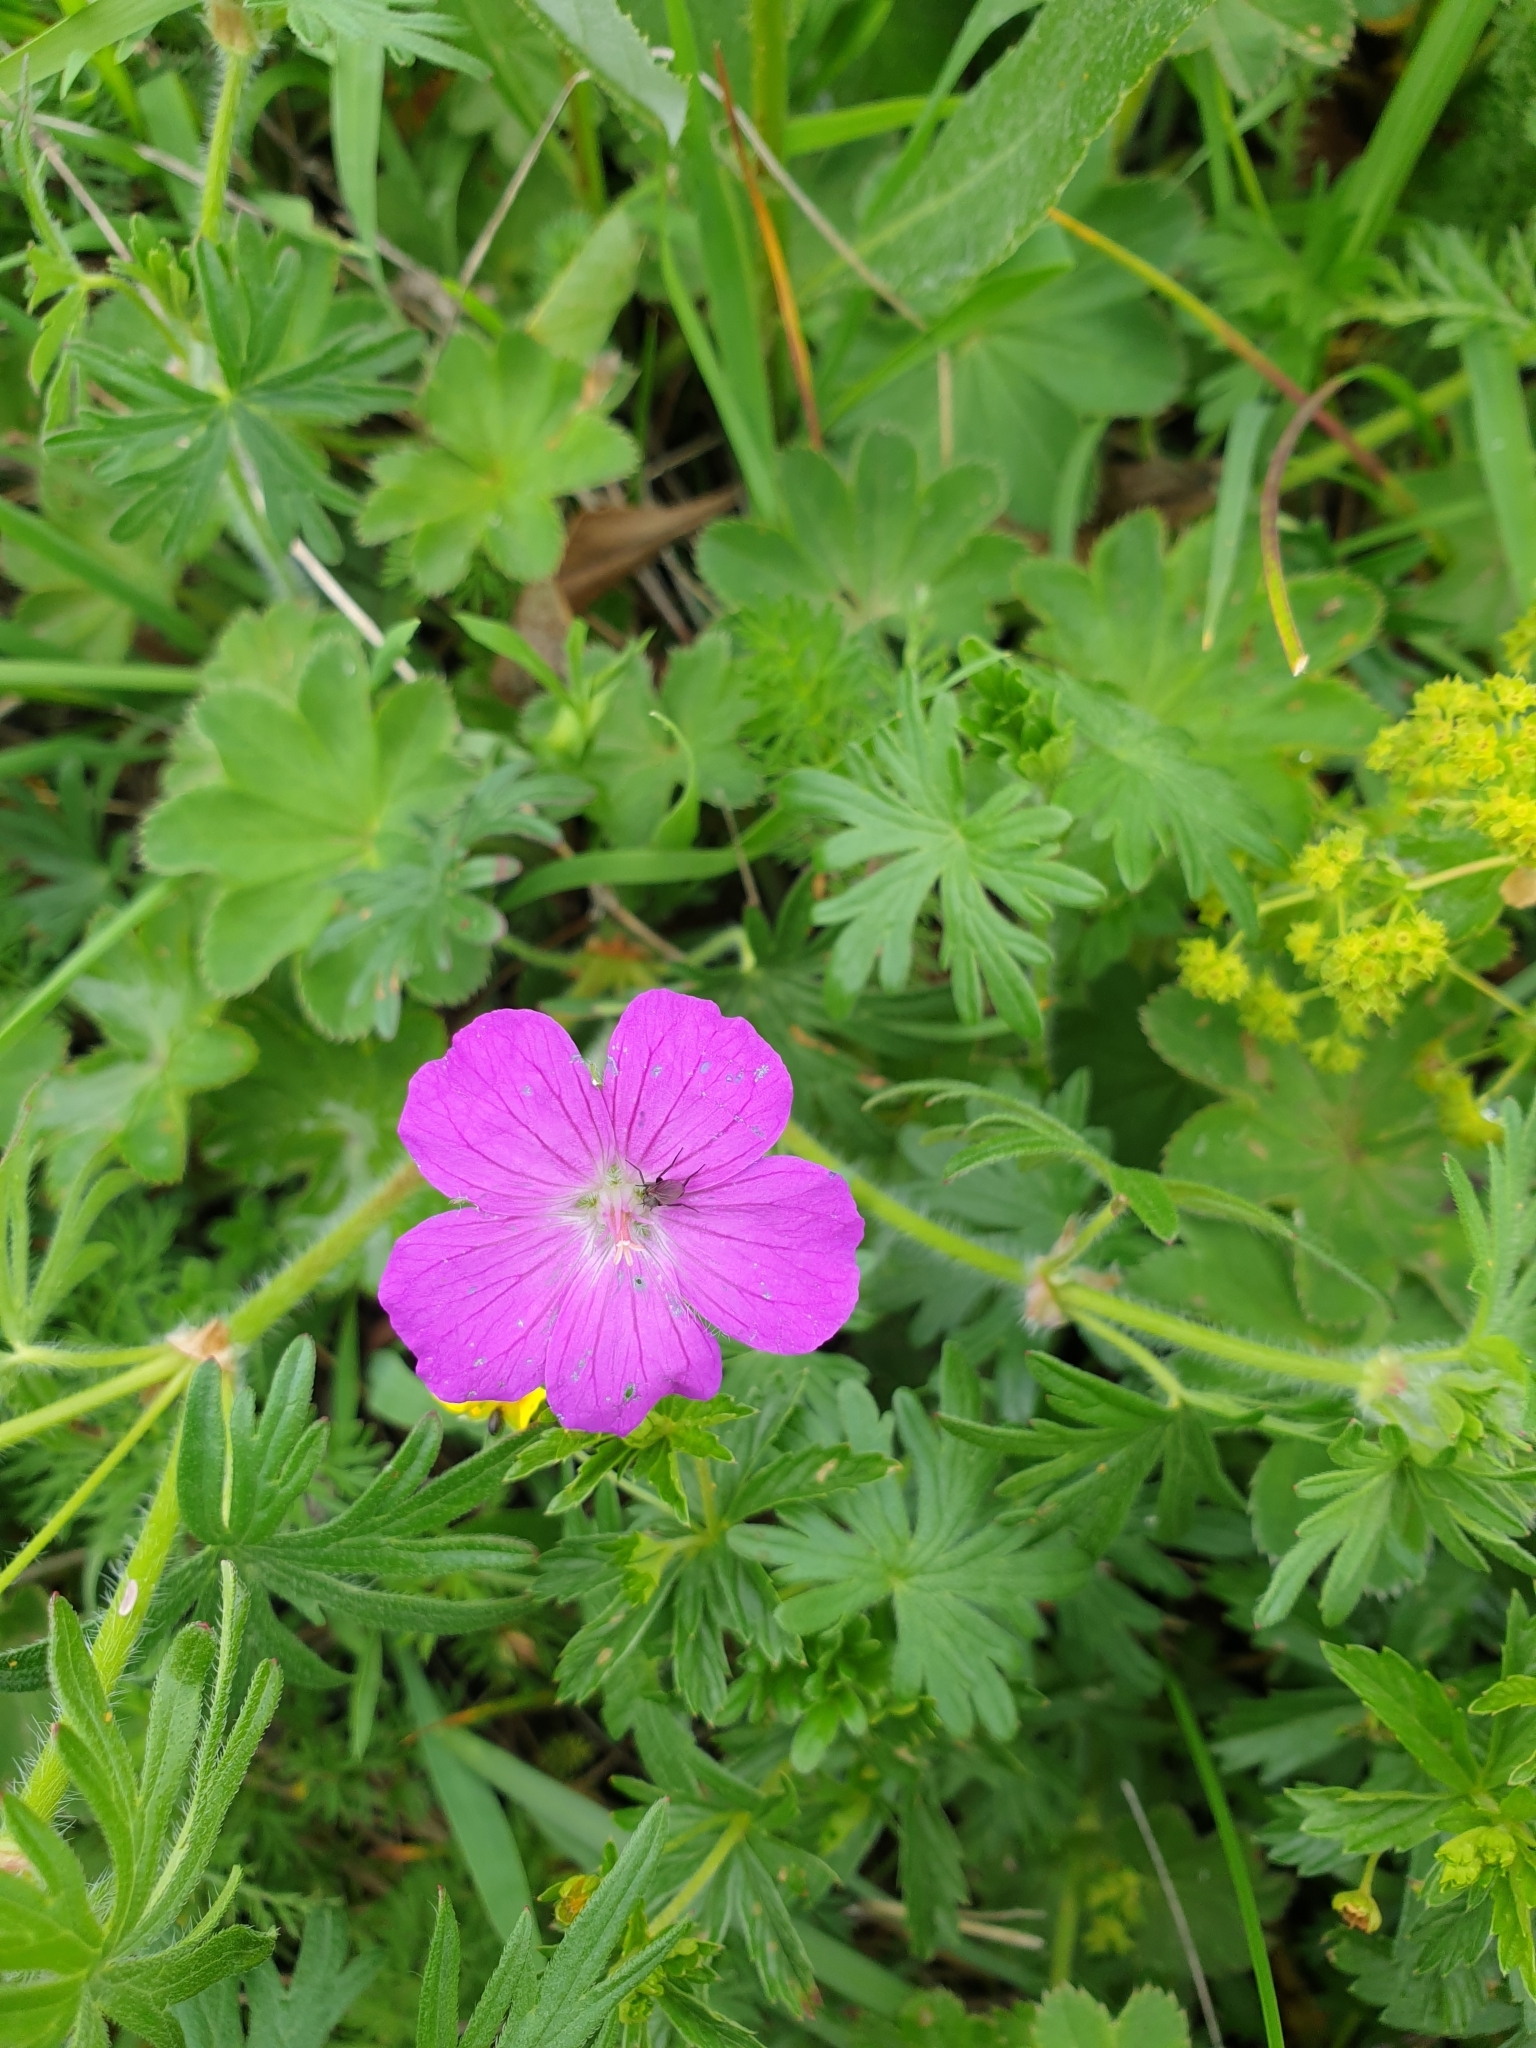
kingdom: Plantae
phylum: Tracheophyta
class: Magnoliopsida
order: Geraniales
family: Geraniaceae
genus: Geranium
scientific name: Geranium sanguineum
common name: Bloody crane's-bill
